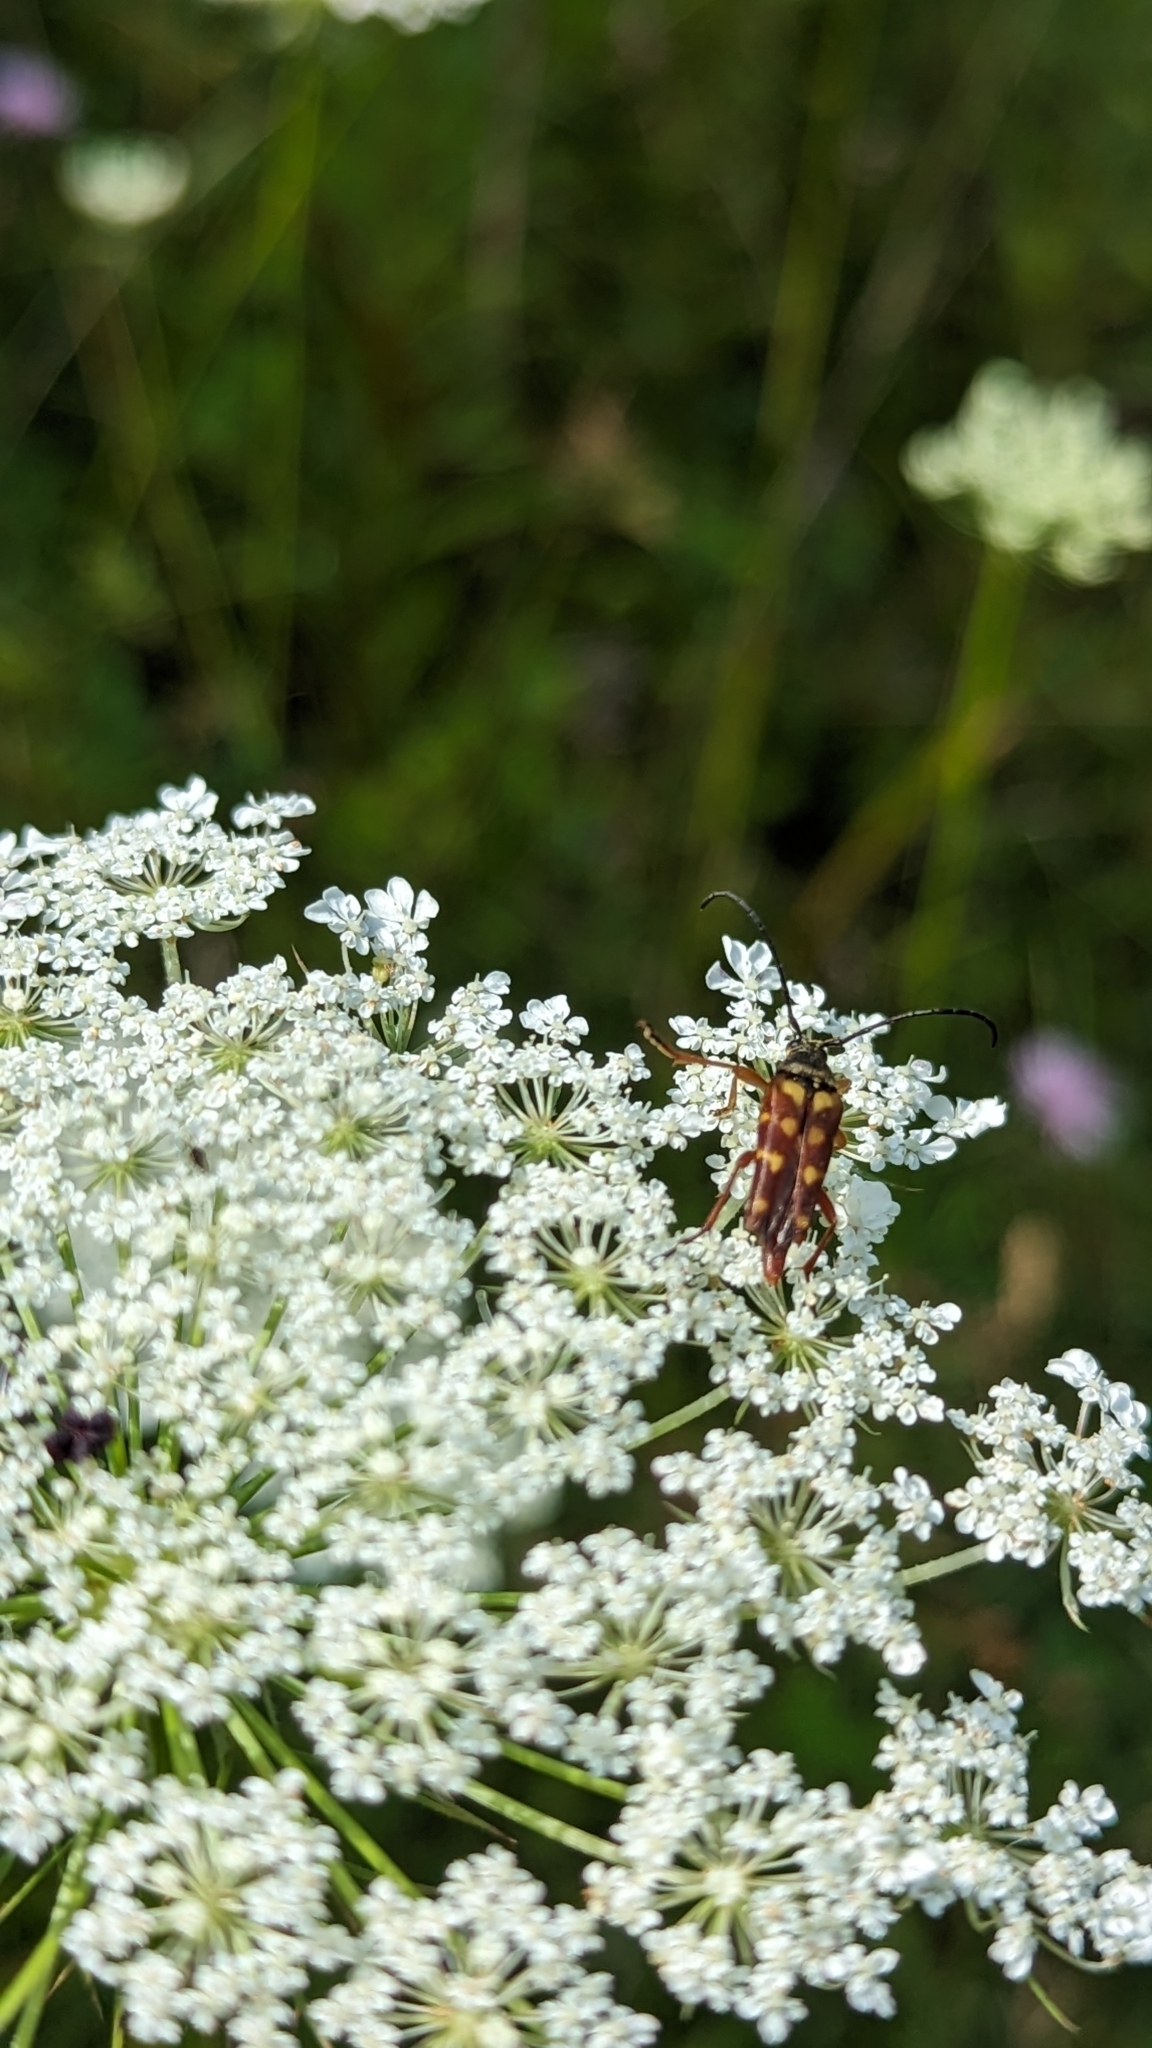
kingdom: Animalia
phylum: Arthropoda
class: Insecta
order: Coleoptera
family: Cerambycidae
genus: Typocerus
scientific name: Typocerus velutinus
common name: Banded longhorn beetle
